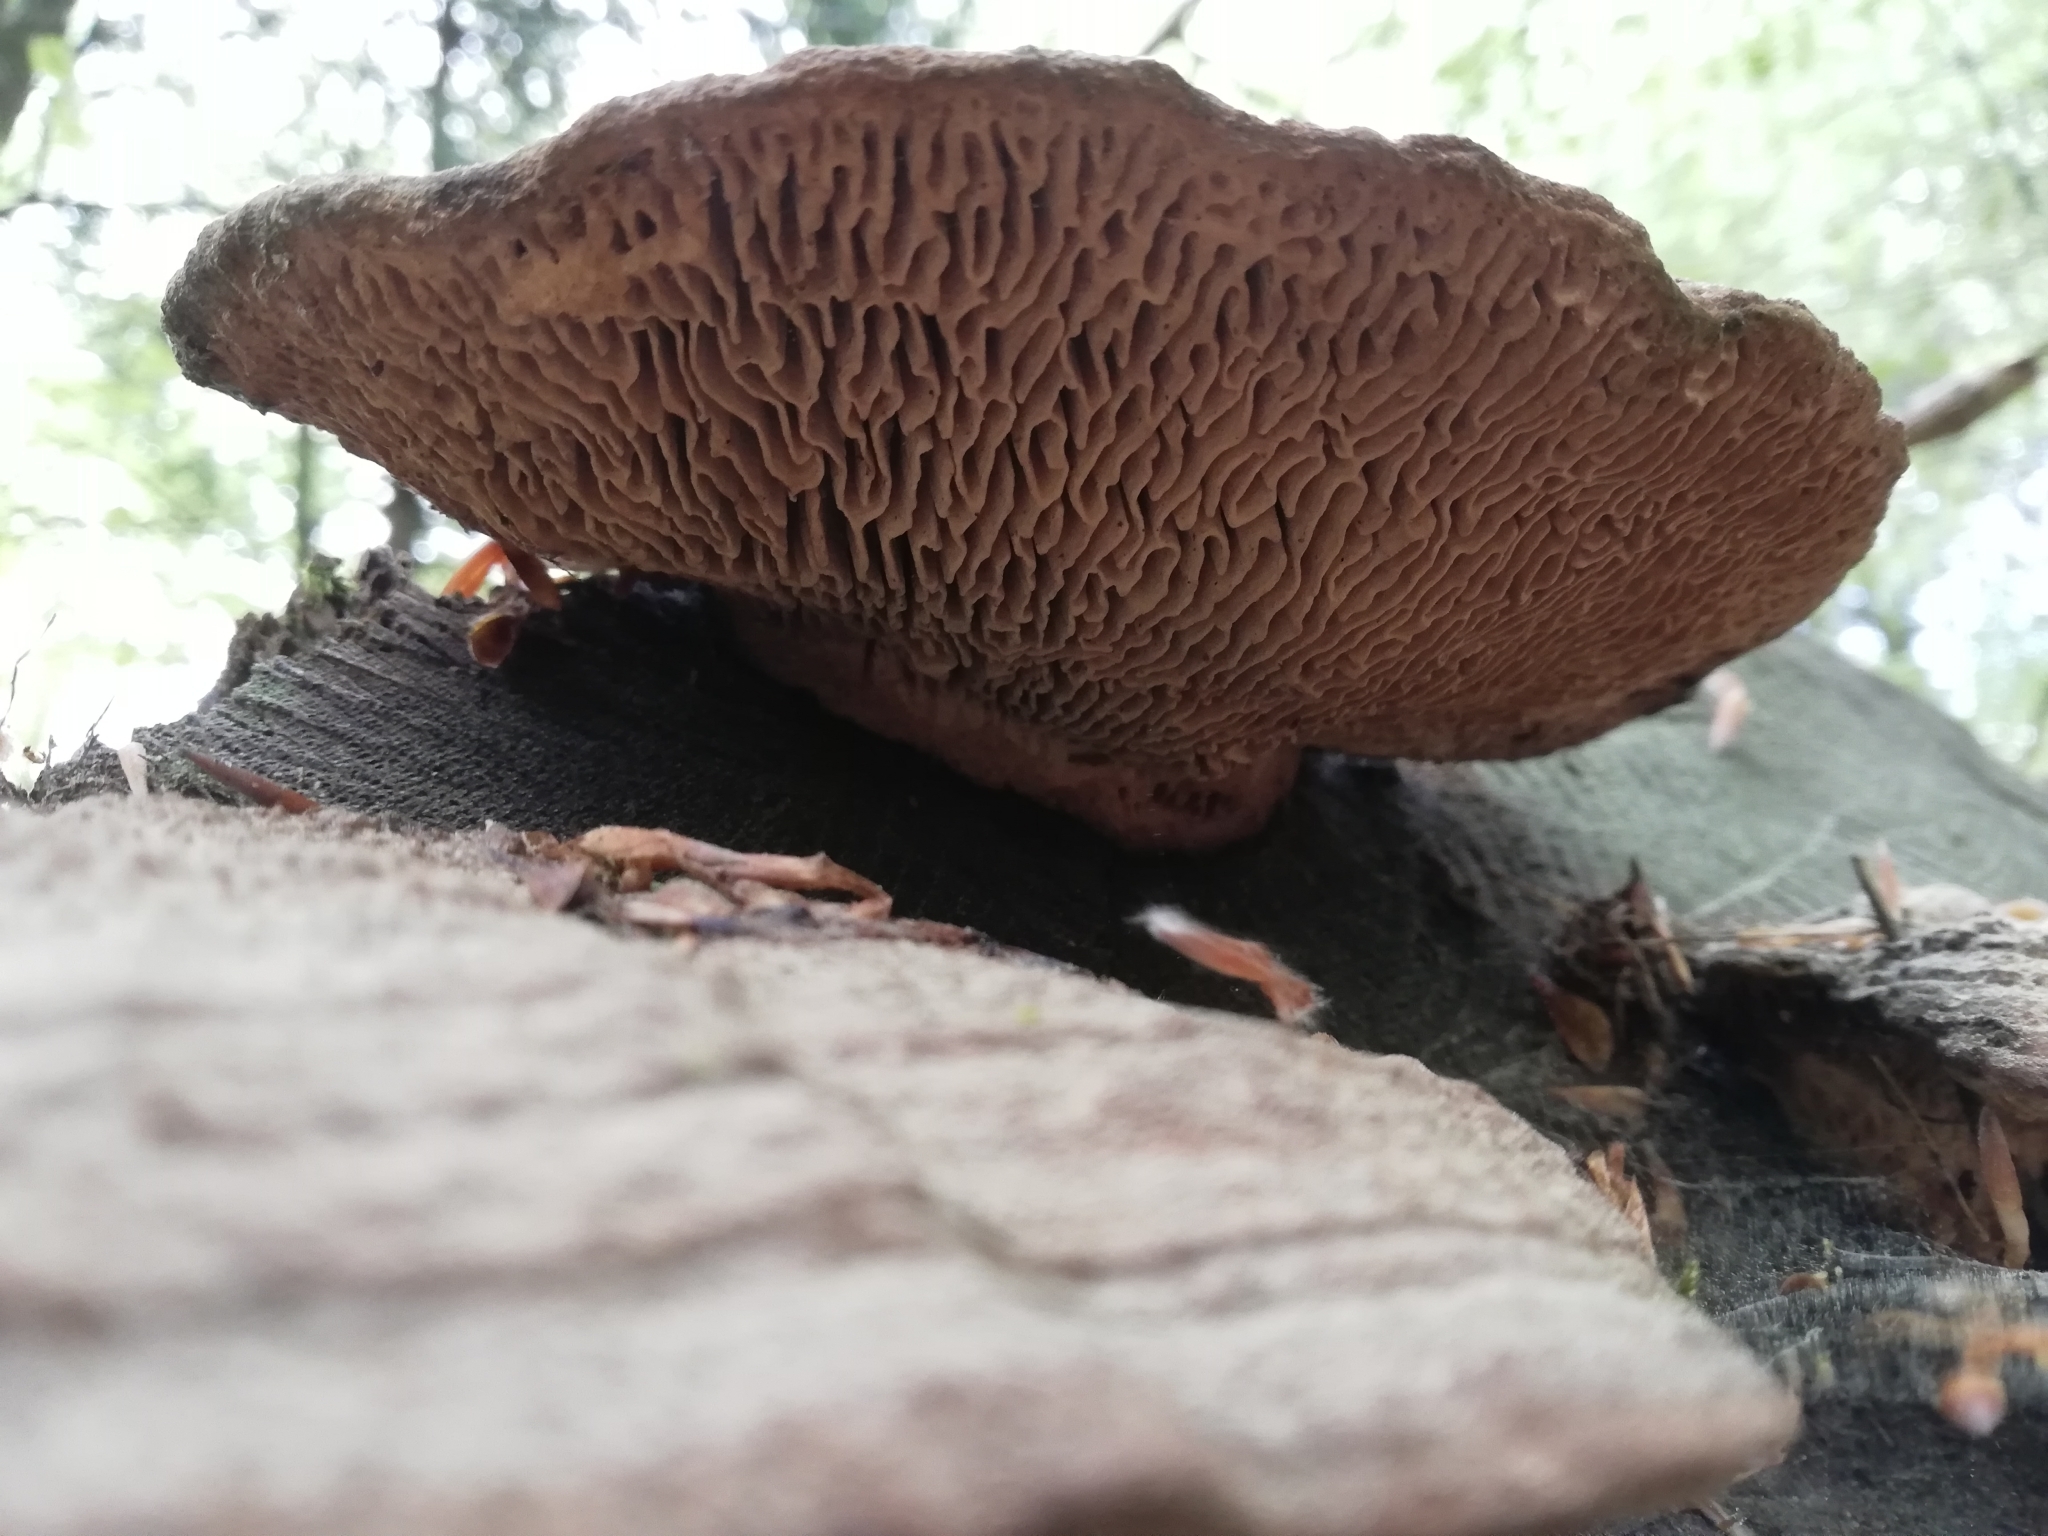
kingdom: Fungi
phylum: Basidiomycota
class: Agaricomycetes
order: Polyporales
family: Fomitopsidaceae
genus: Fomitopsis
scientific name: Fomitopsis
